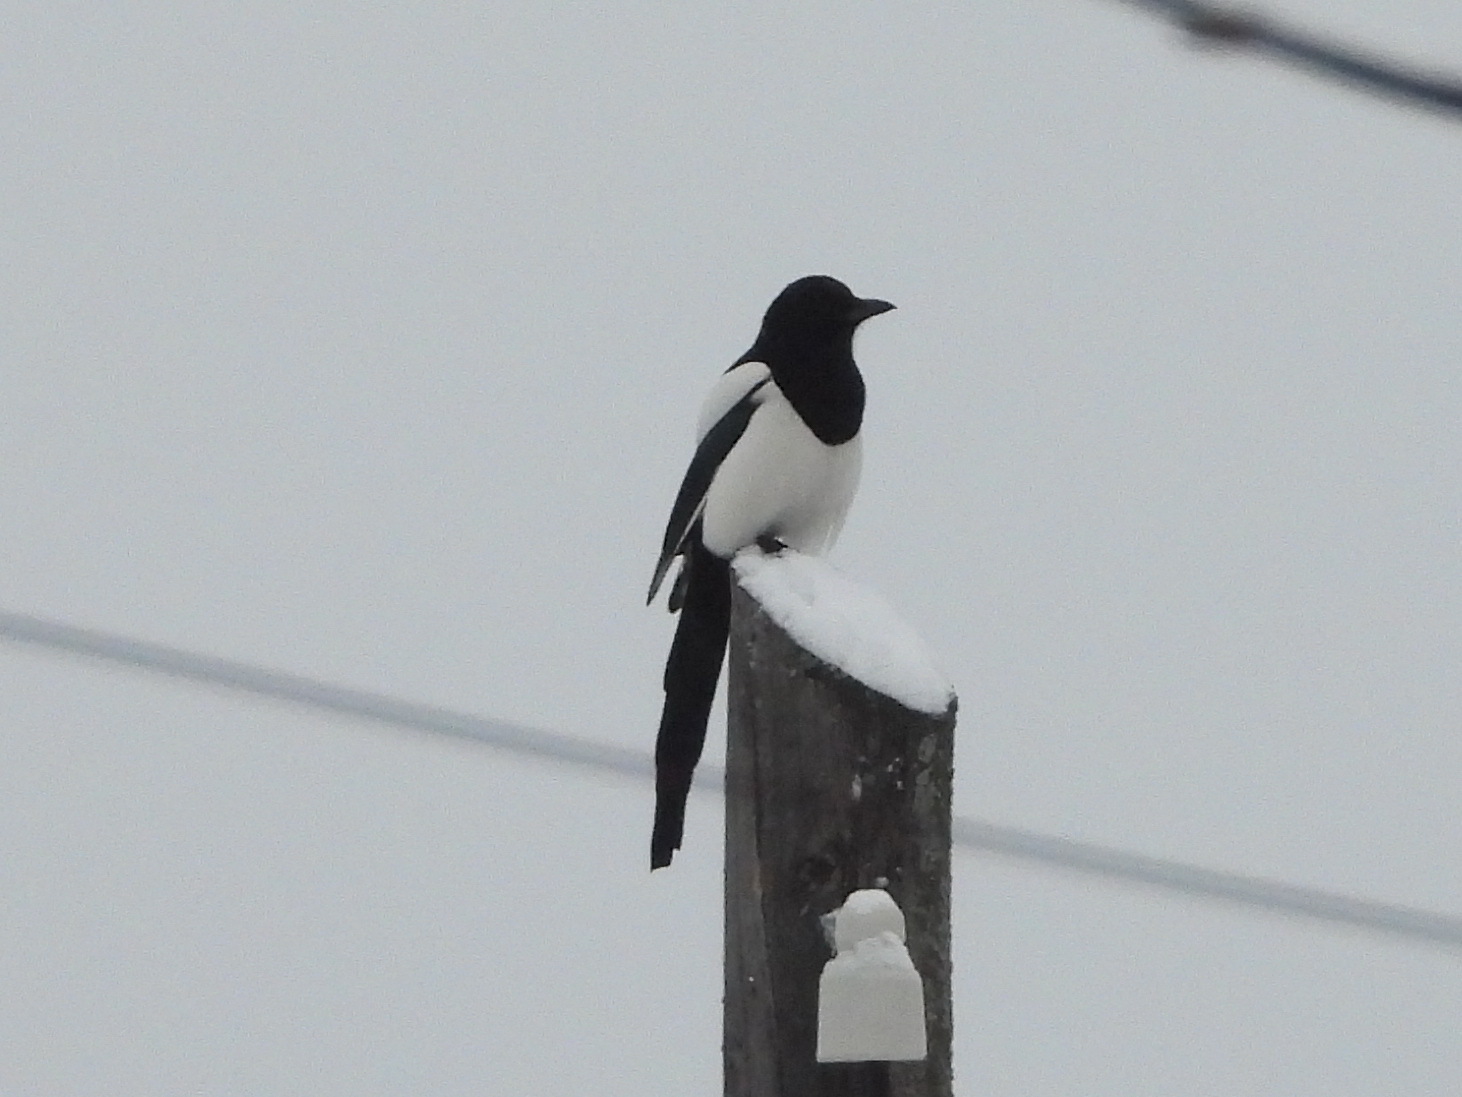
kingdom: Animalia
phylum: Chordata
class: Aves
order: Passeriformes
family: Corvidae
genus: Pica
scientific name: Pica pica
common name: Eurasian magpie
